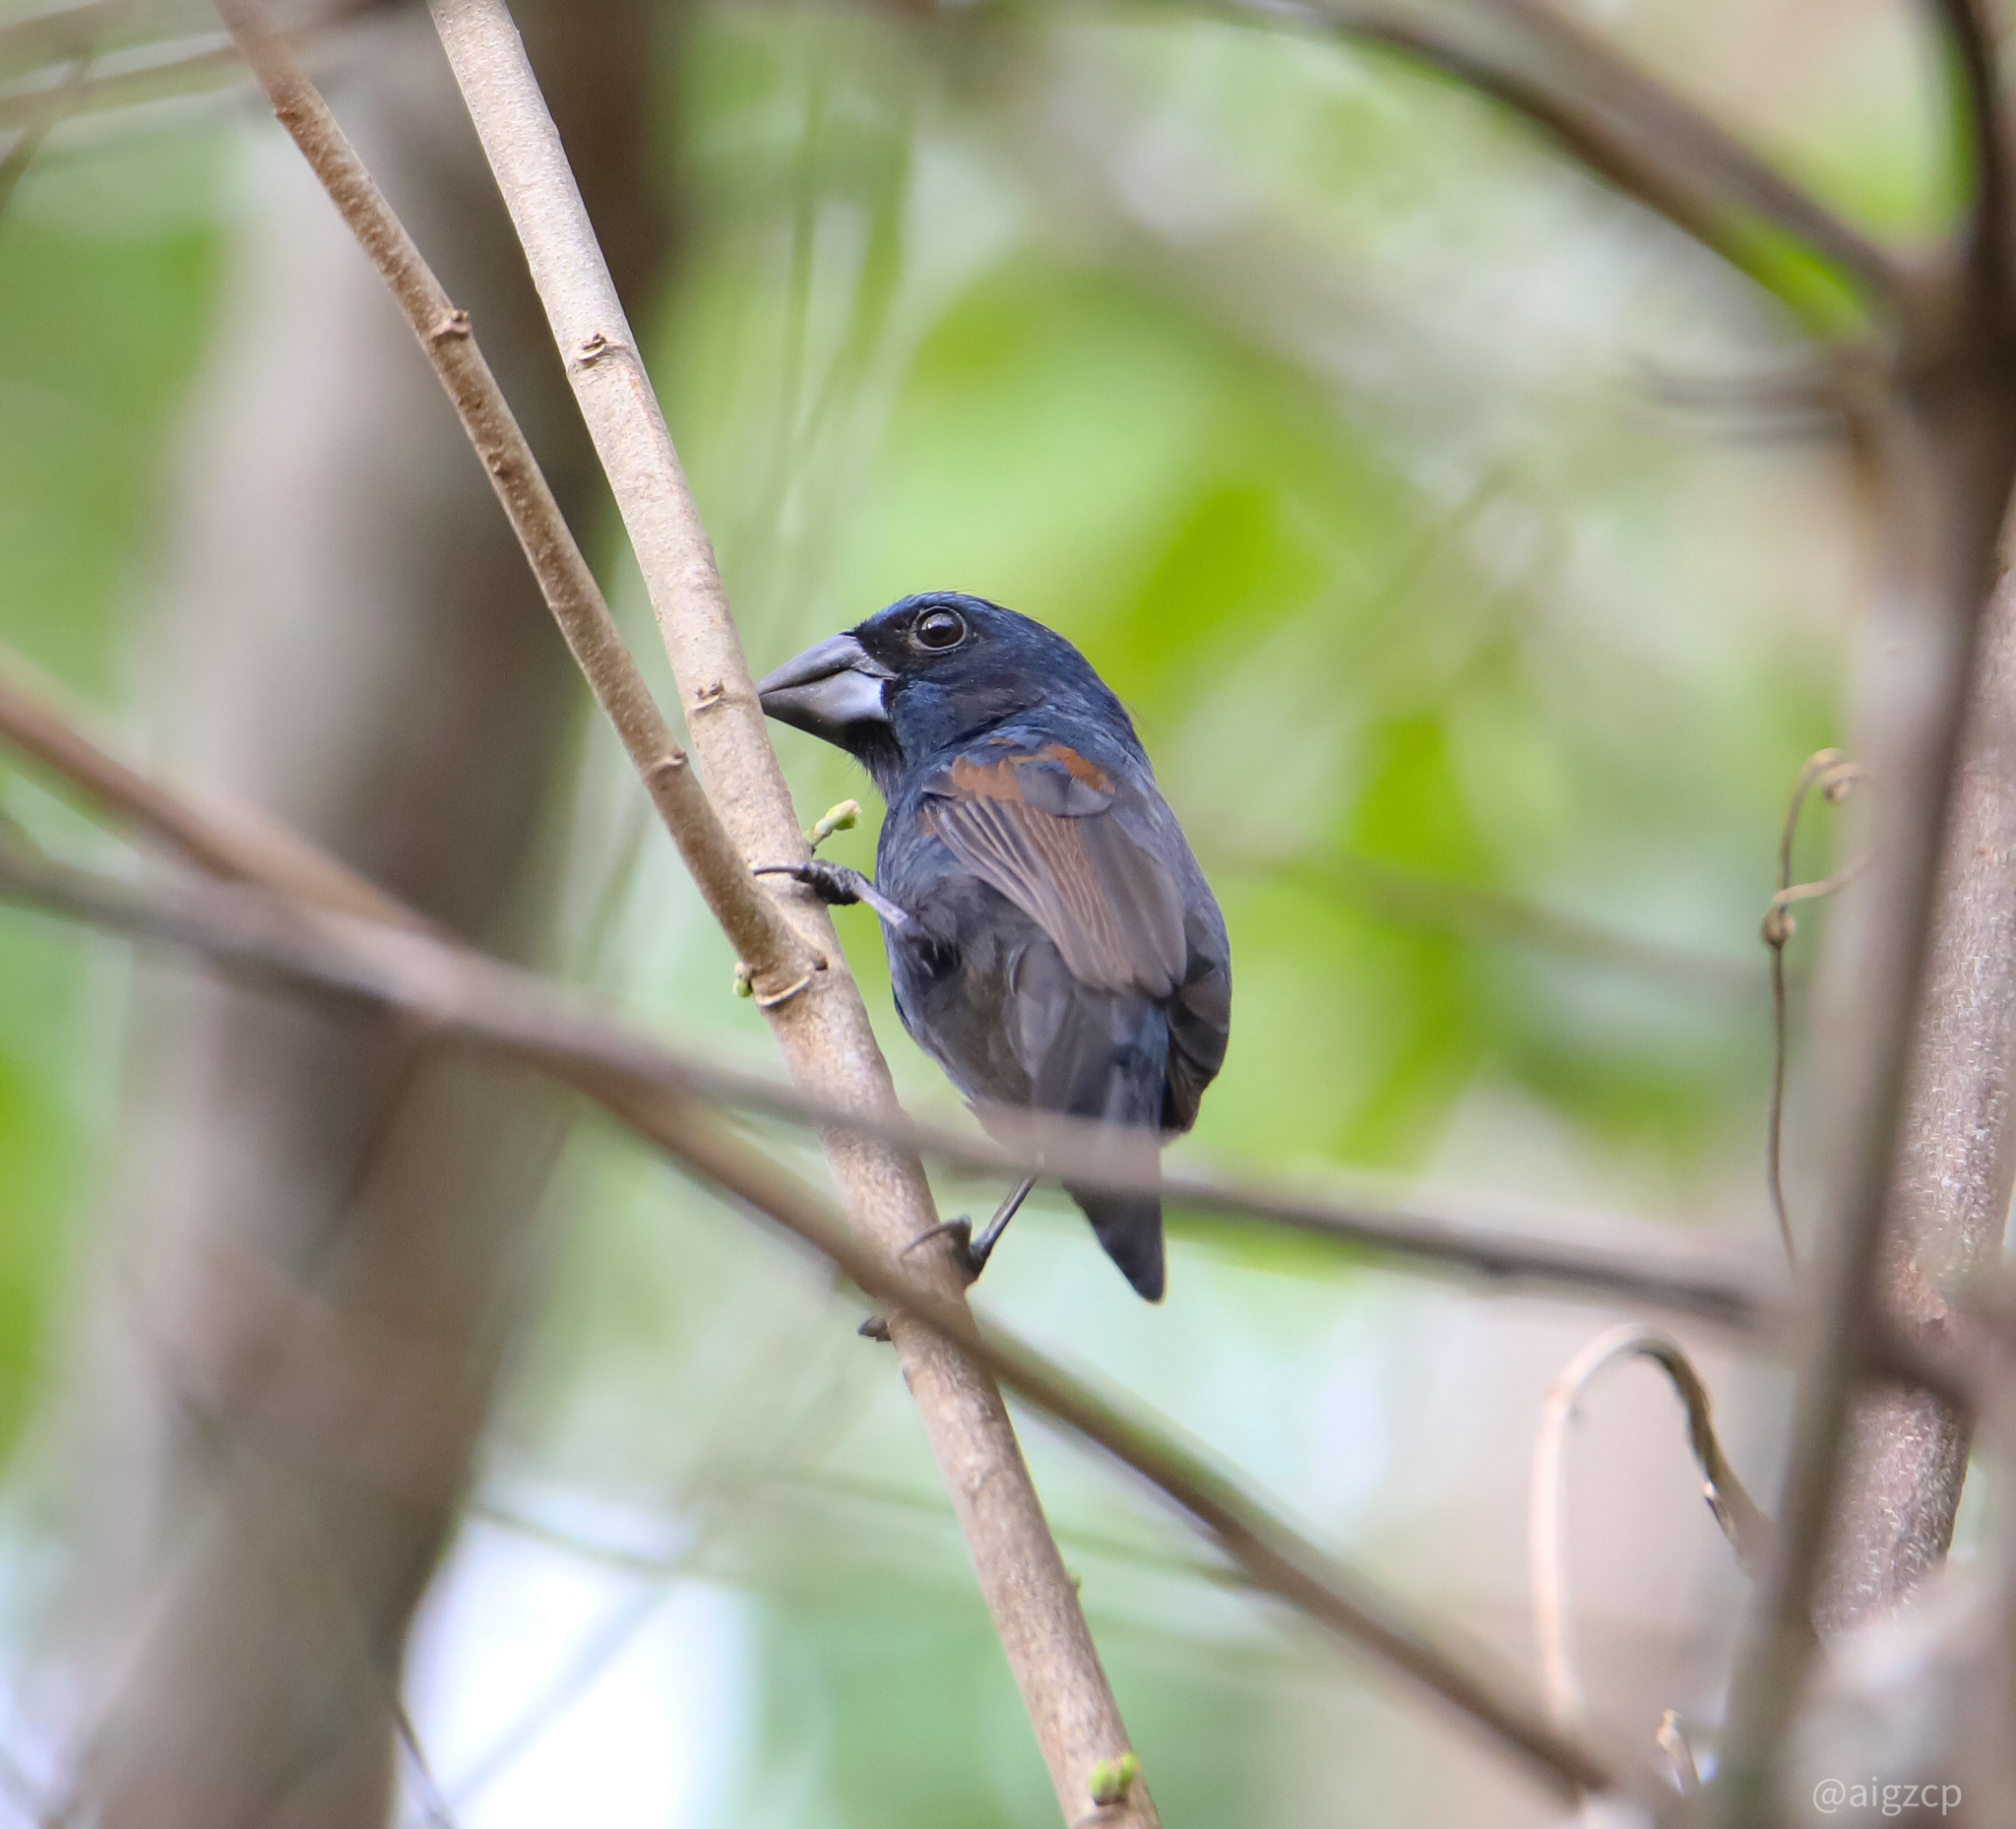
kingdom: Animalia
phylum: Chordata
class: Aves
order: Passeriformes
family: Cardinalidae
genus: Cyanocompsa
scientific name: Cyanocompsa cyanoides
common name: Blue-black grosbeak
